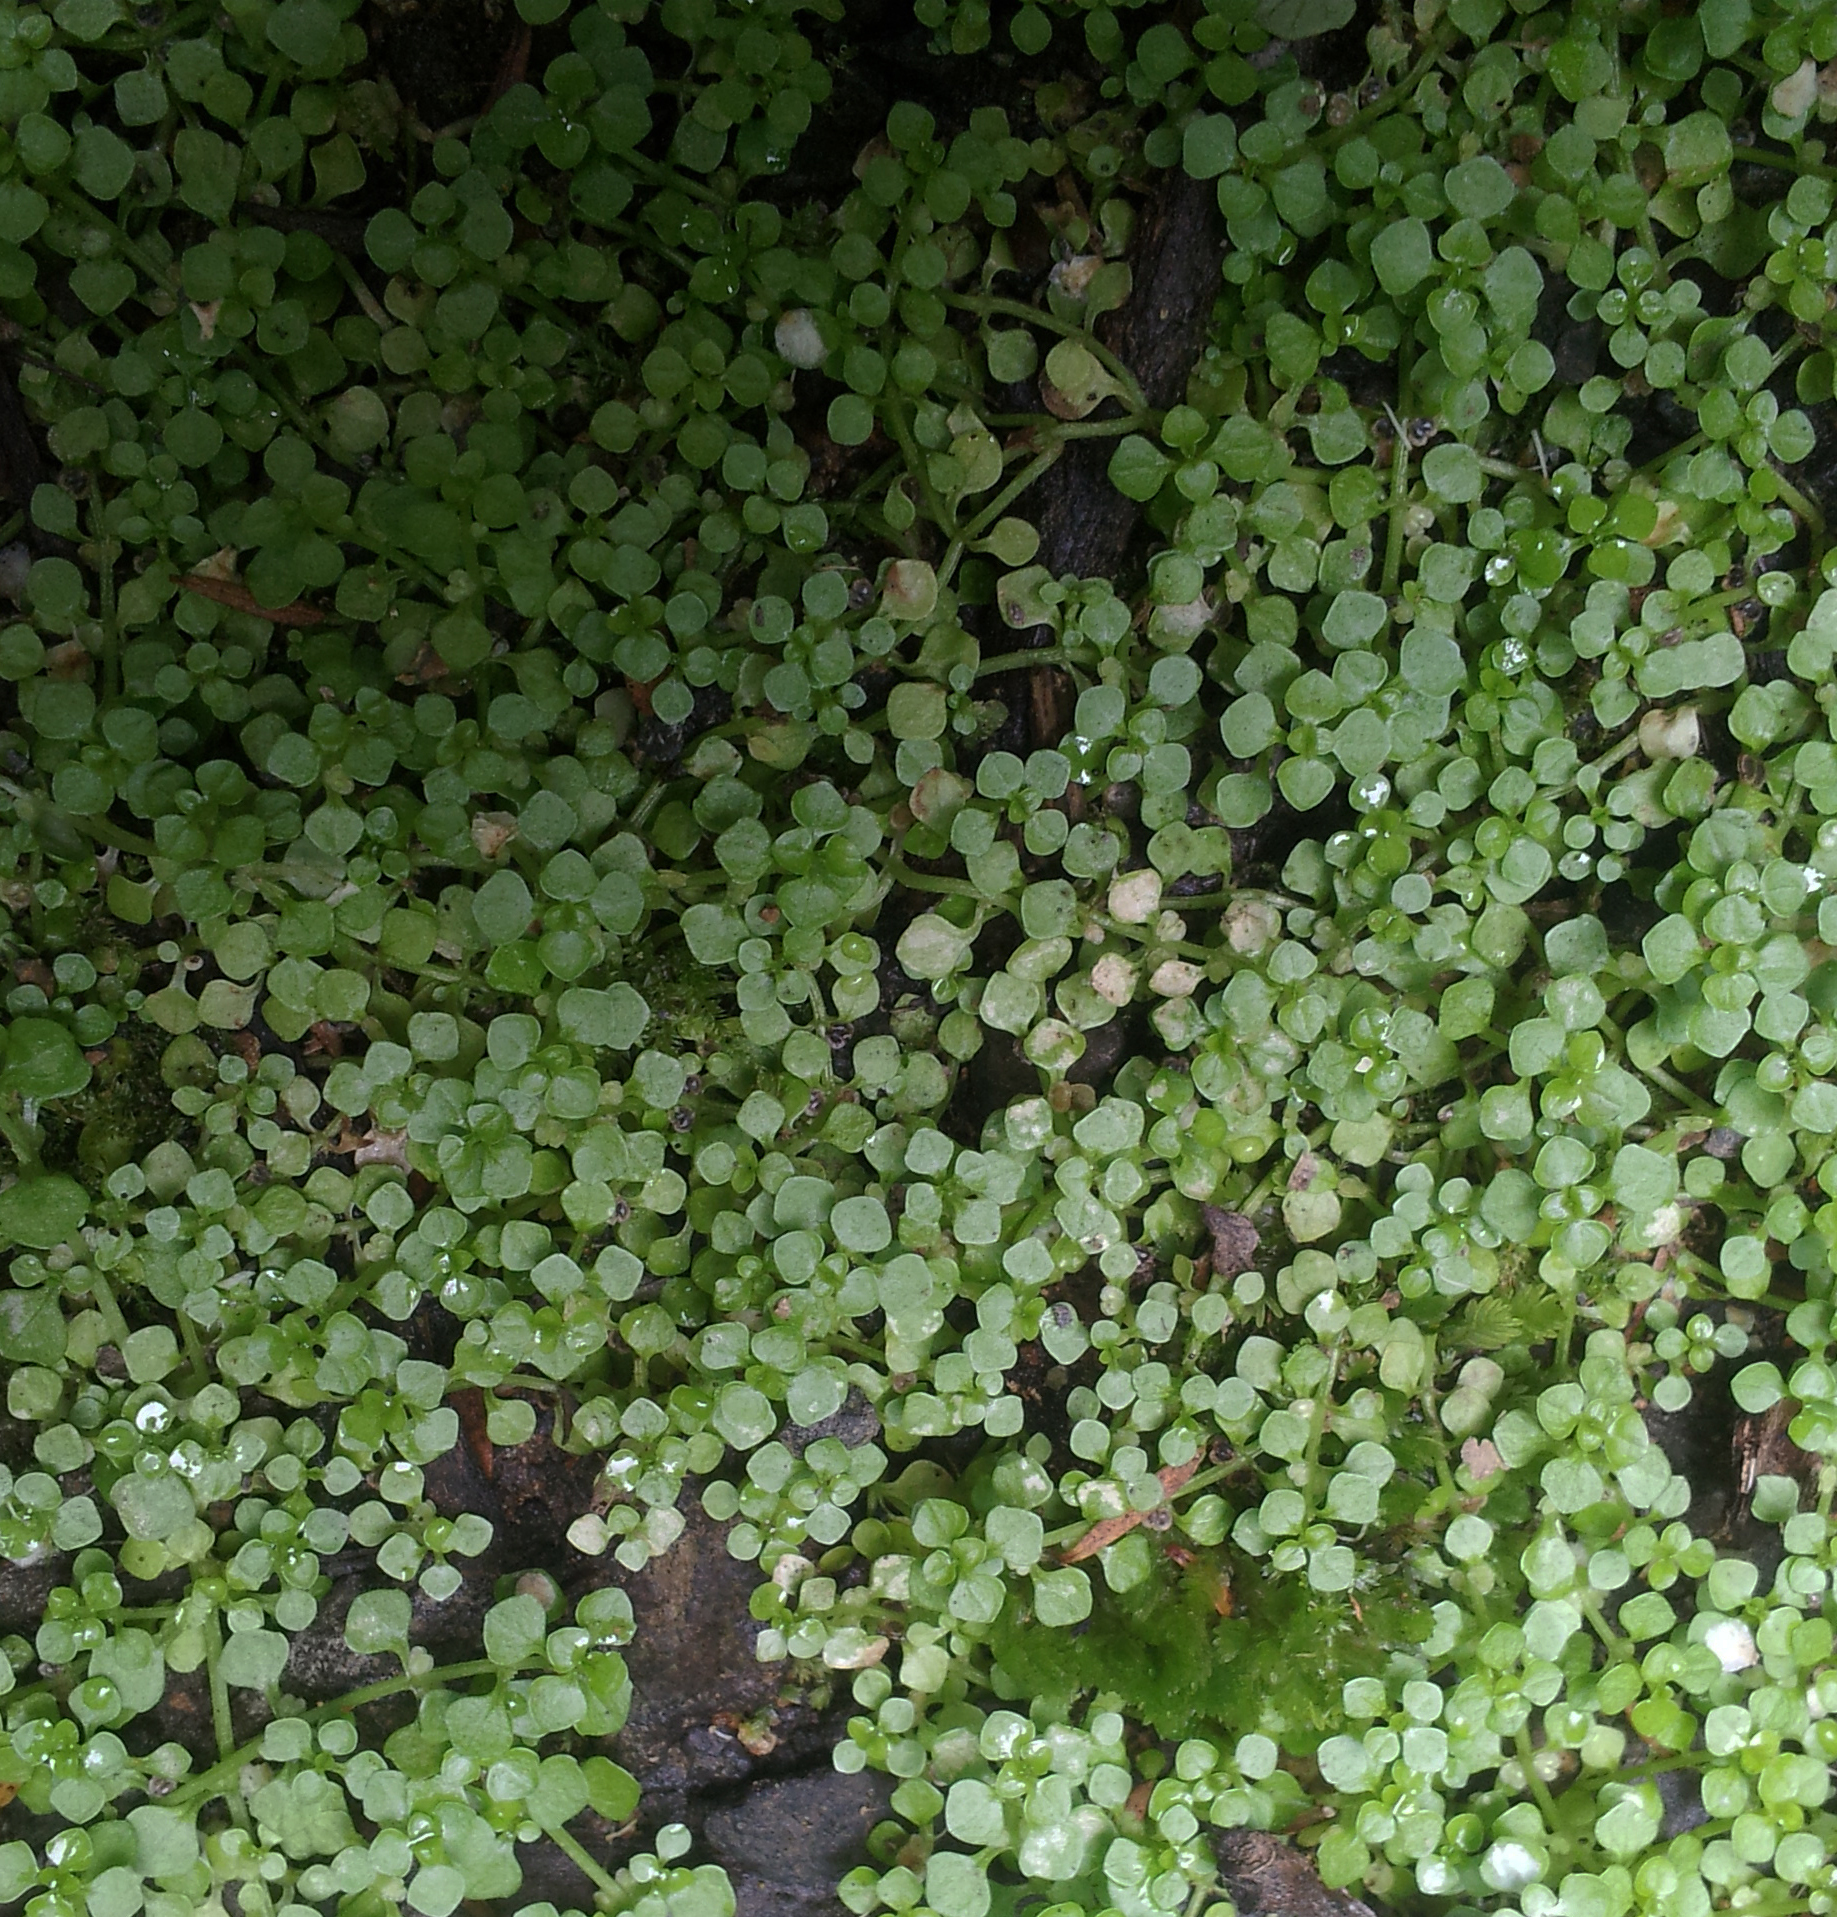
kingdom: Plantae
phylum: Tracheophyta
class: Magnoliopsida
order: Lamiales
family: Plantaginaceae
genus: Callitriche
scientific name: Callitriche muelleri
